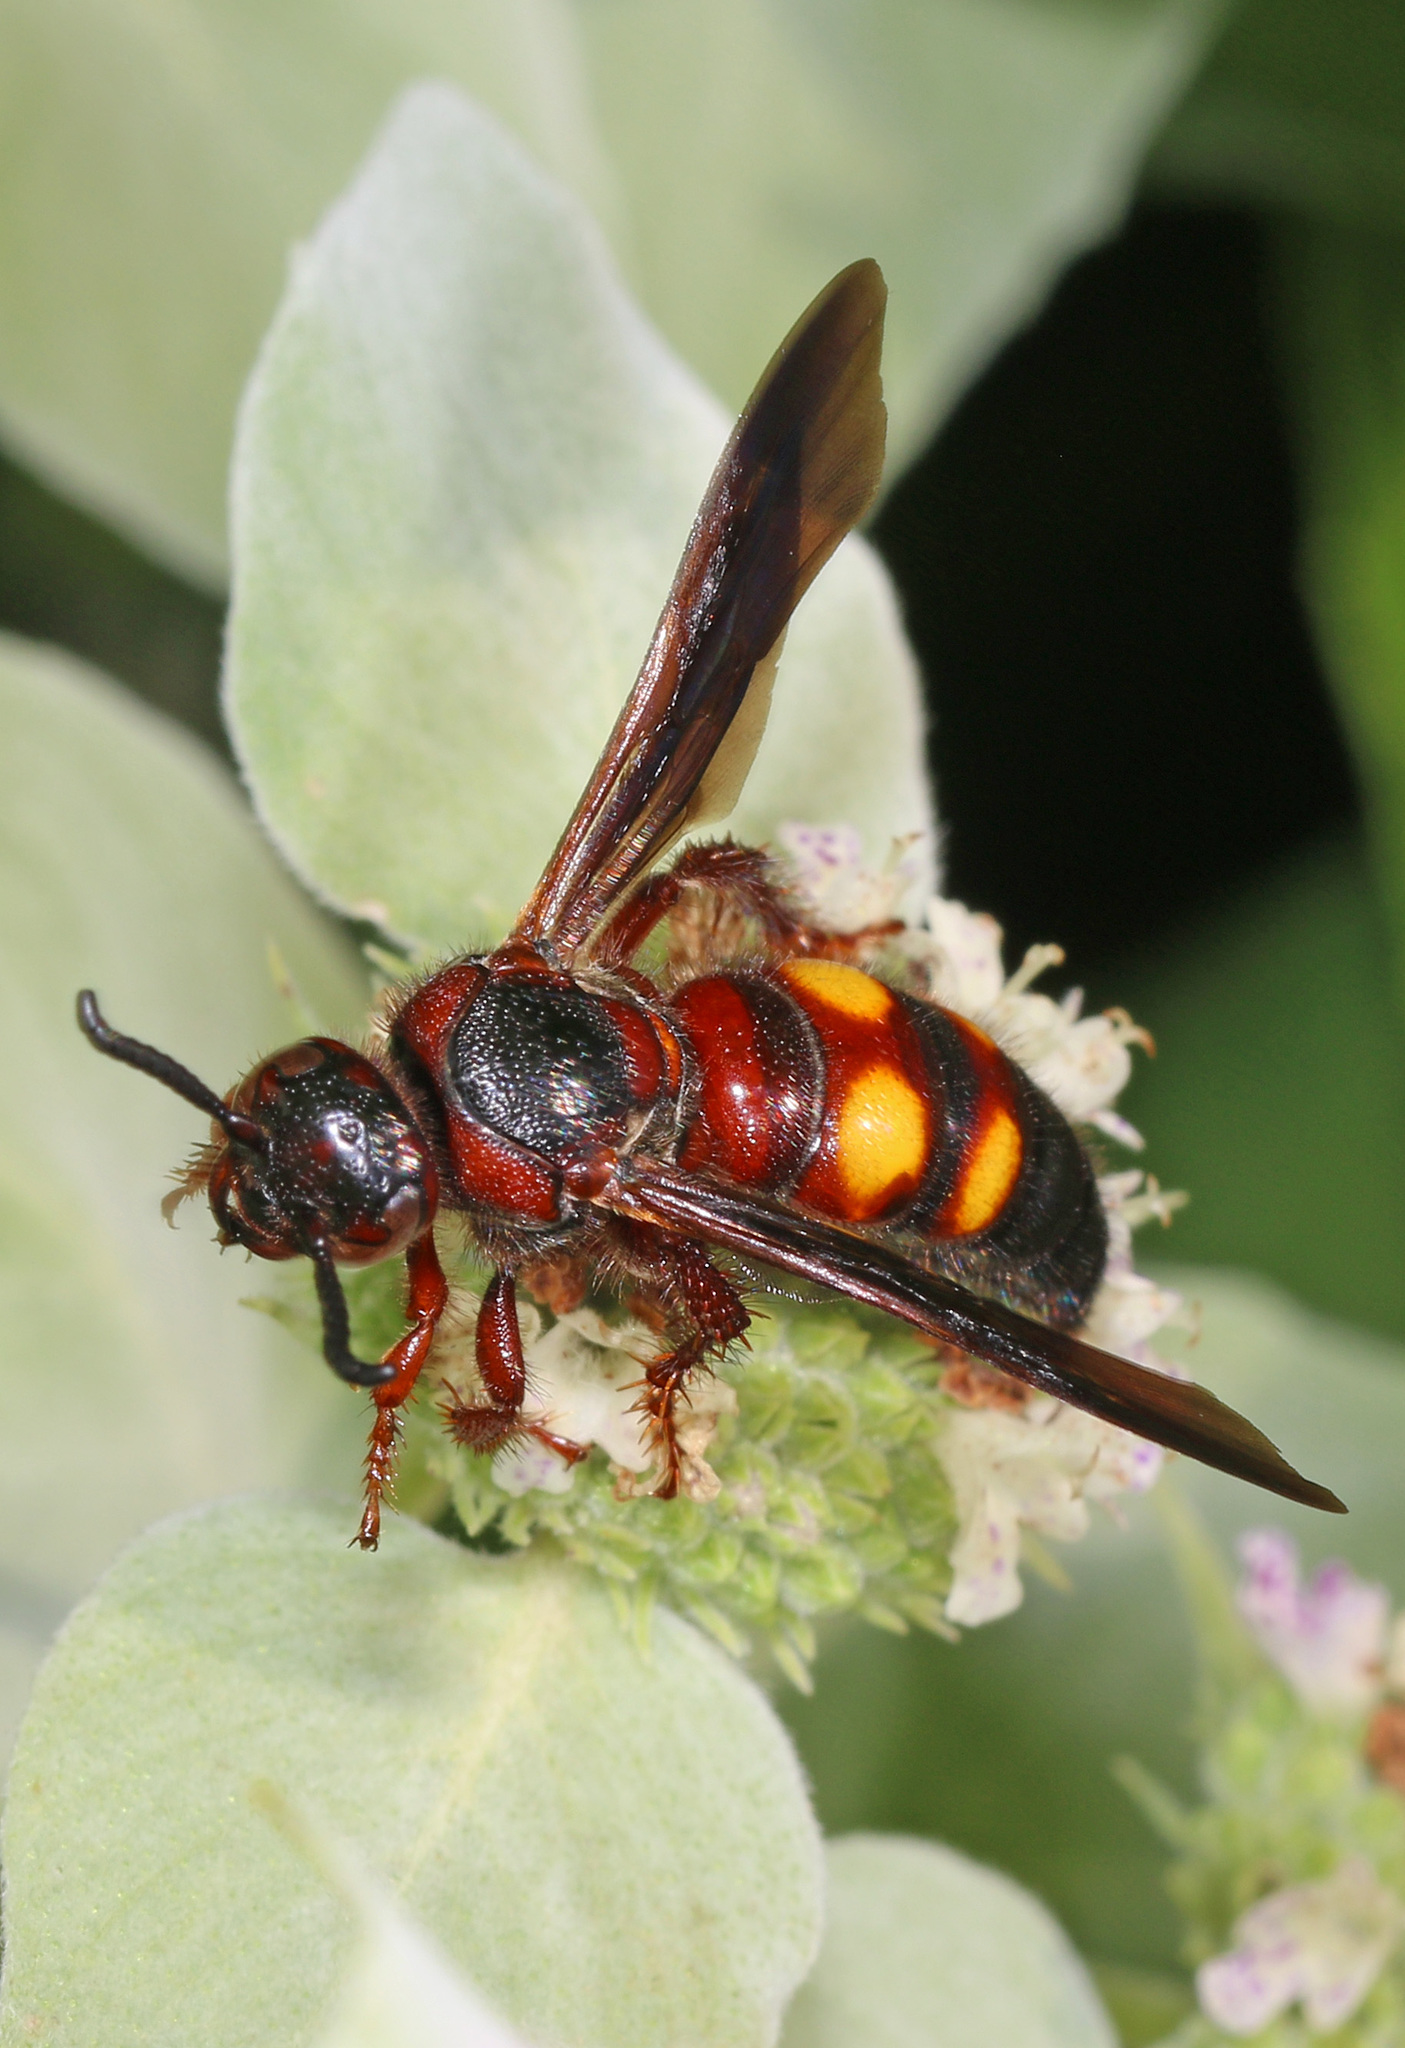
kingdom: Animalia
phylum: Arthropoda
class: Insecta
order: Hymenoptera
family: Scoliidae
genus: Scolia
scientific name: Scolia nobilitata
